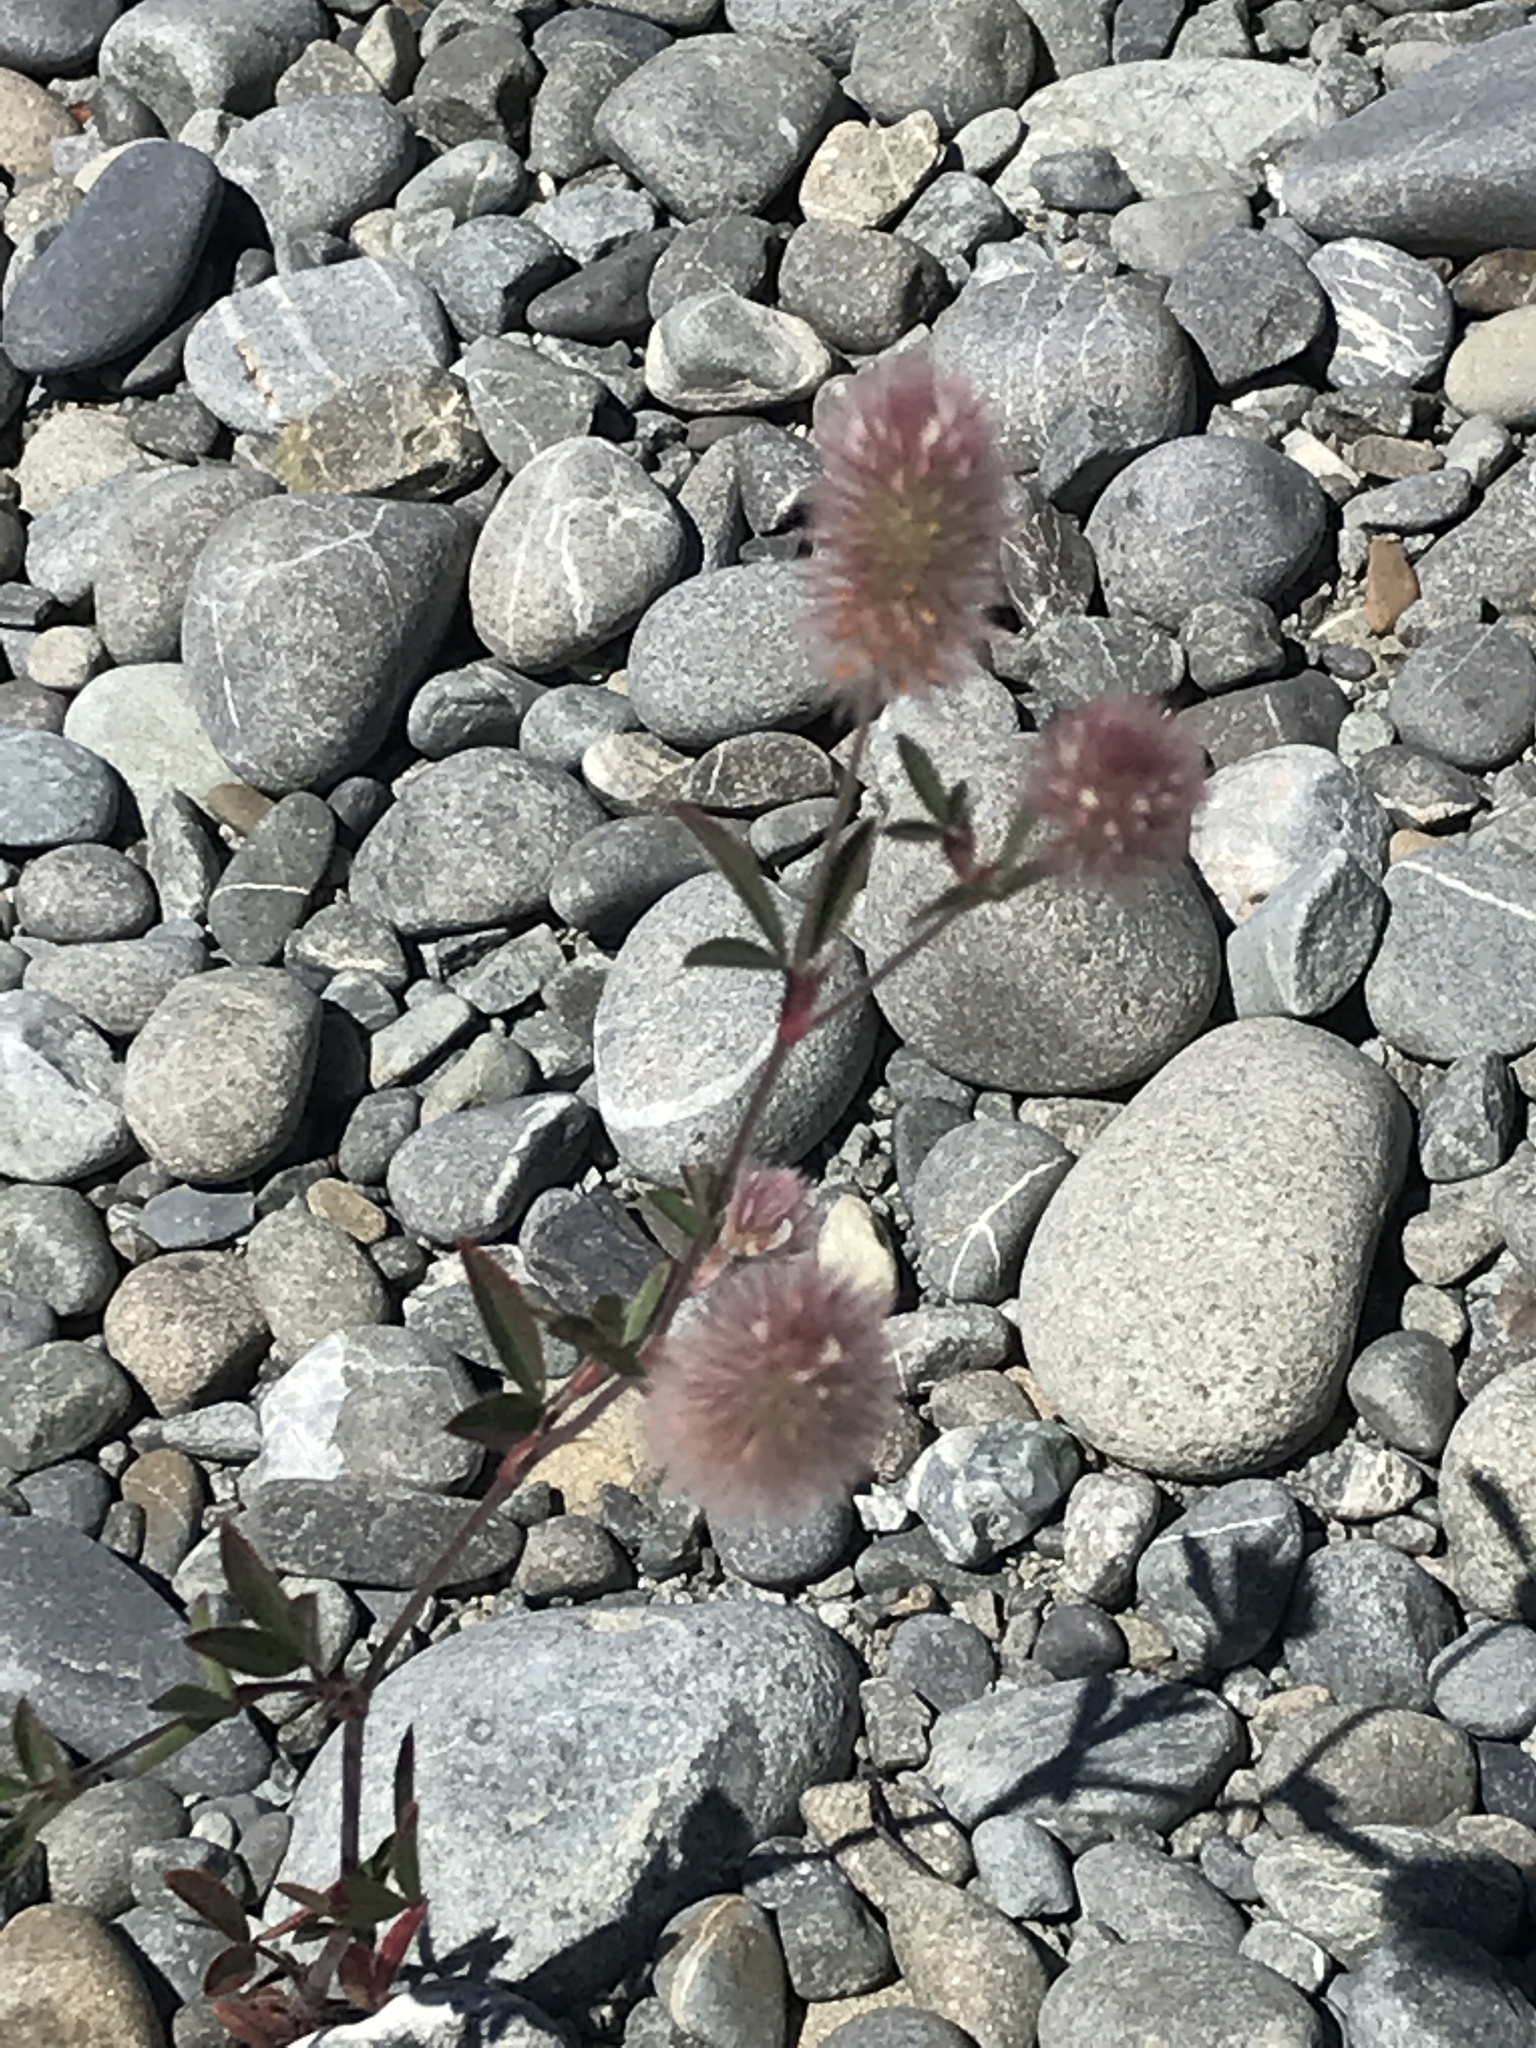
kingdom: Plantae
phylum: Tracheophyta
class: Magnoliopsida
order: Fabales
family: Fabaceae
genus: Trifolium
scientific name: Trifolium arvense
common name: Hare's-foot clover
